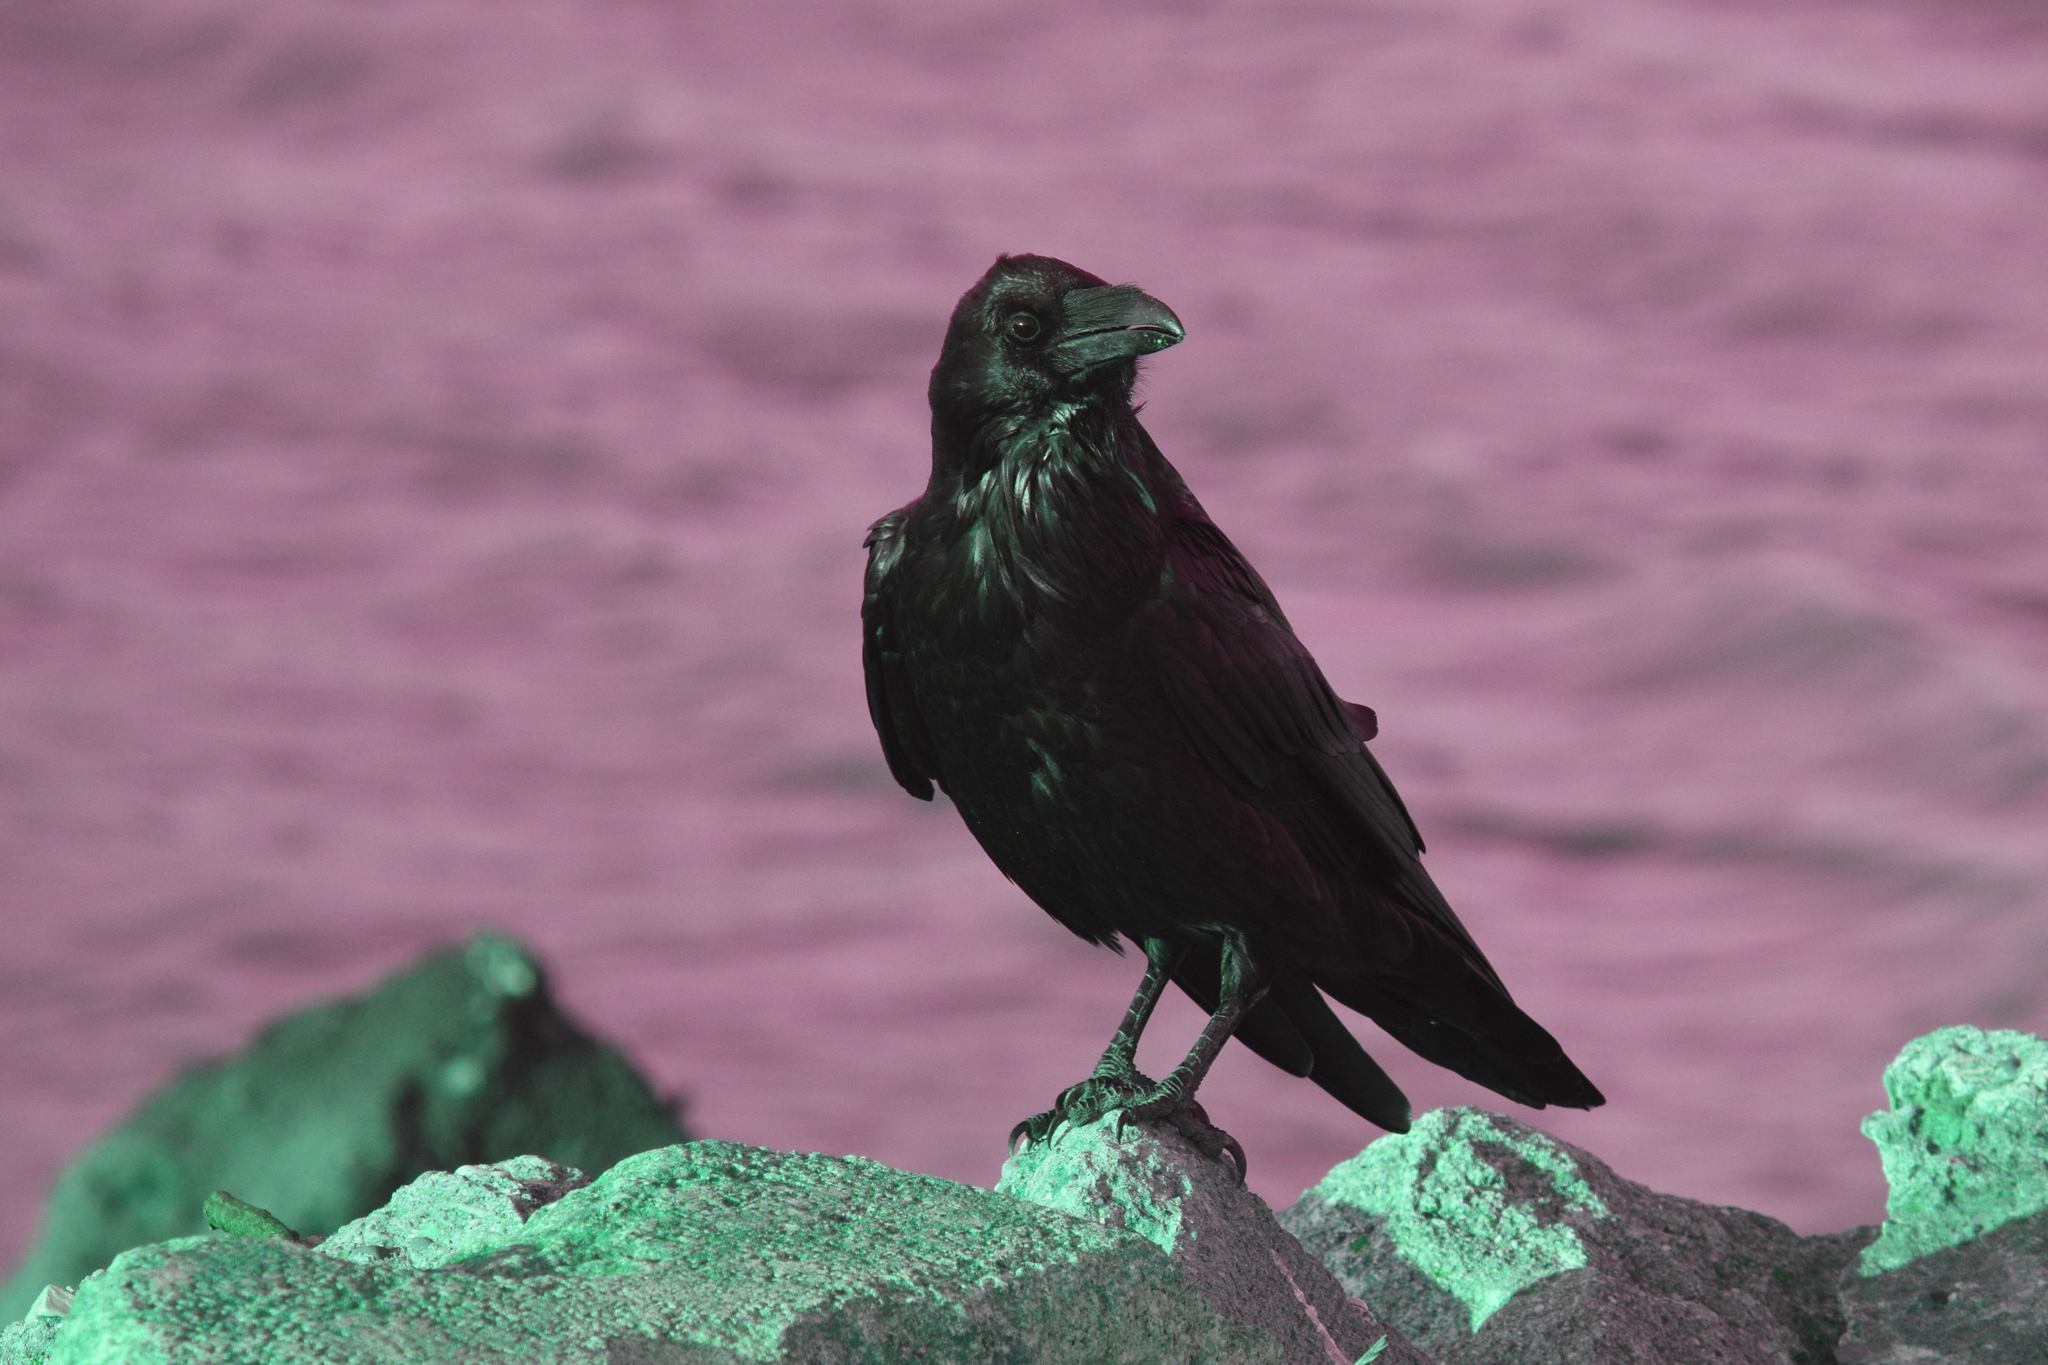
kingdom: Animalia
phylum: Chordata
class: Aves
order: Passeriformes
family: Corvidae
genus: Corvus
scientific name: Corvus corax
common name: Common raven
